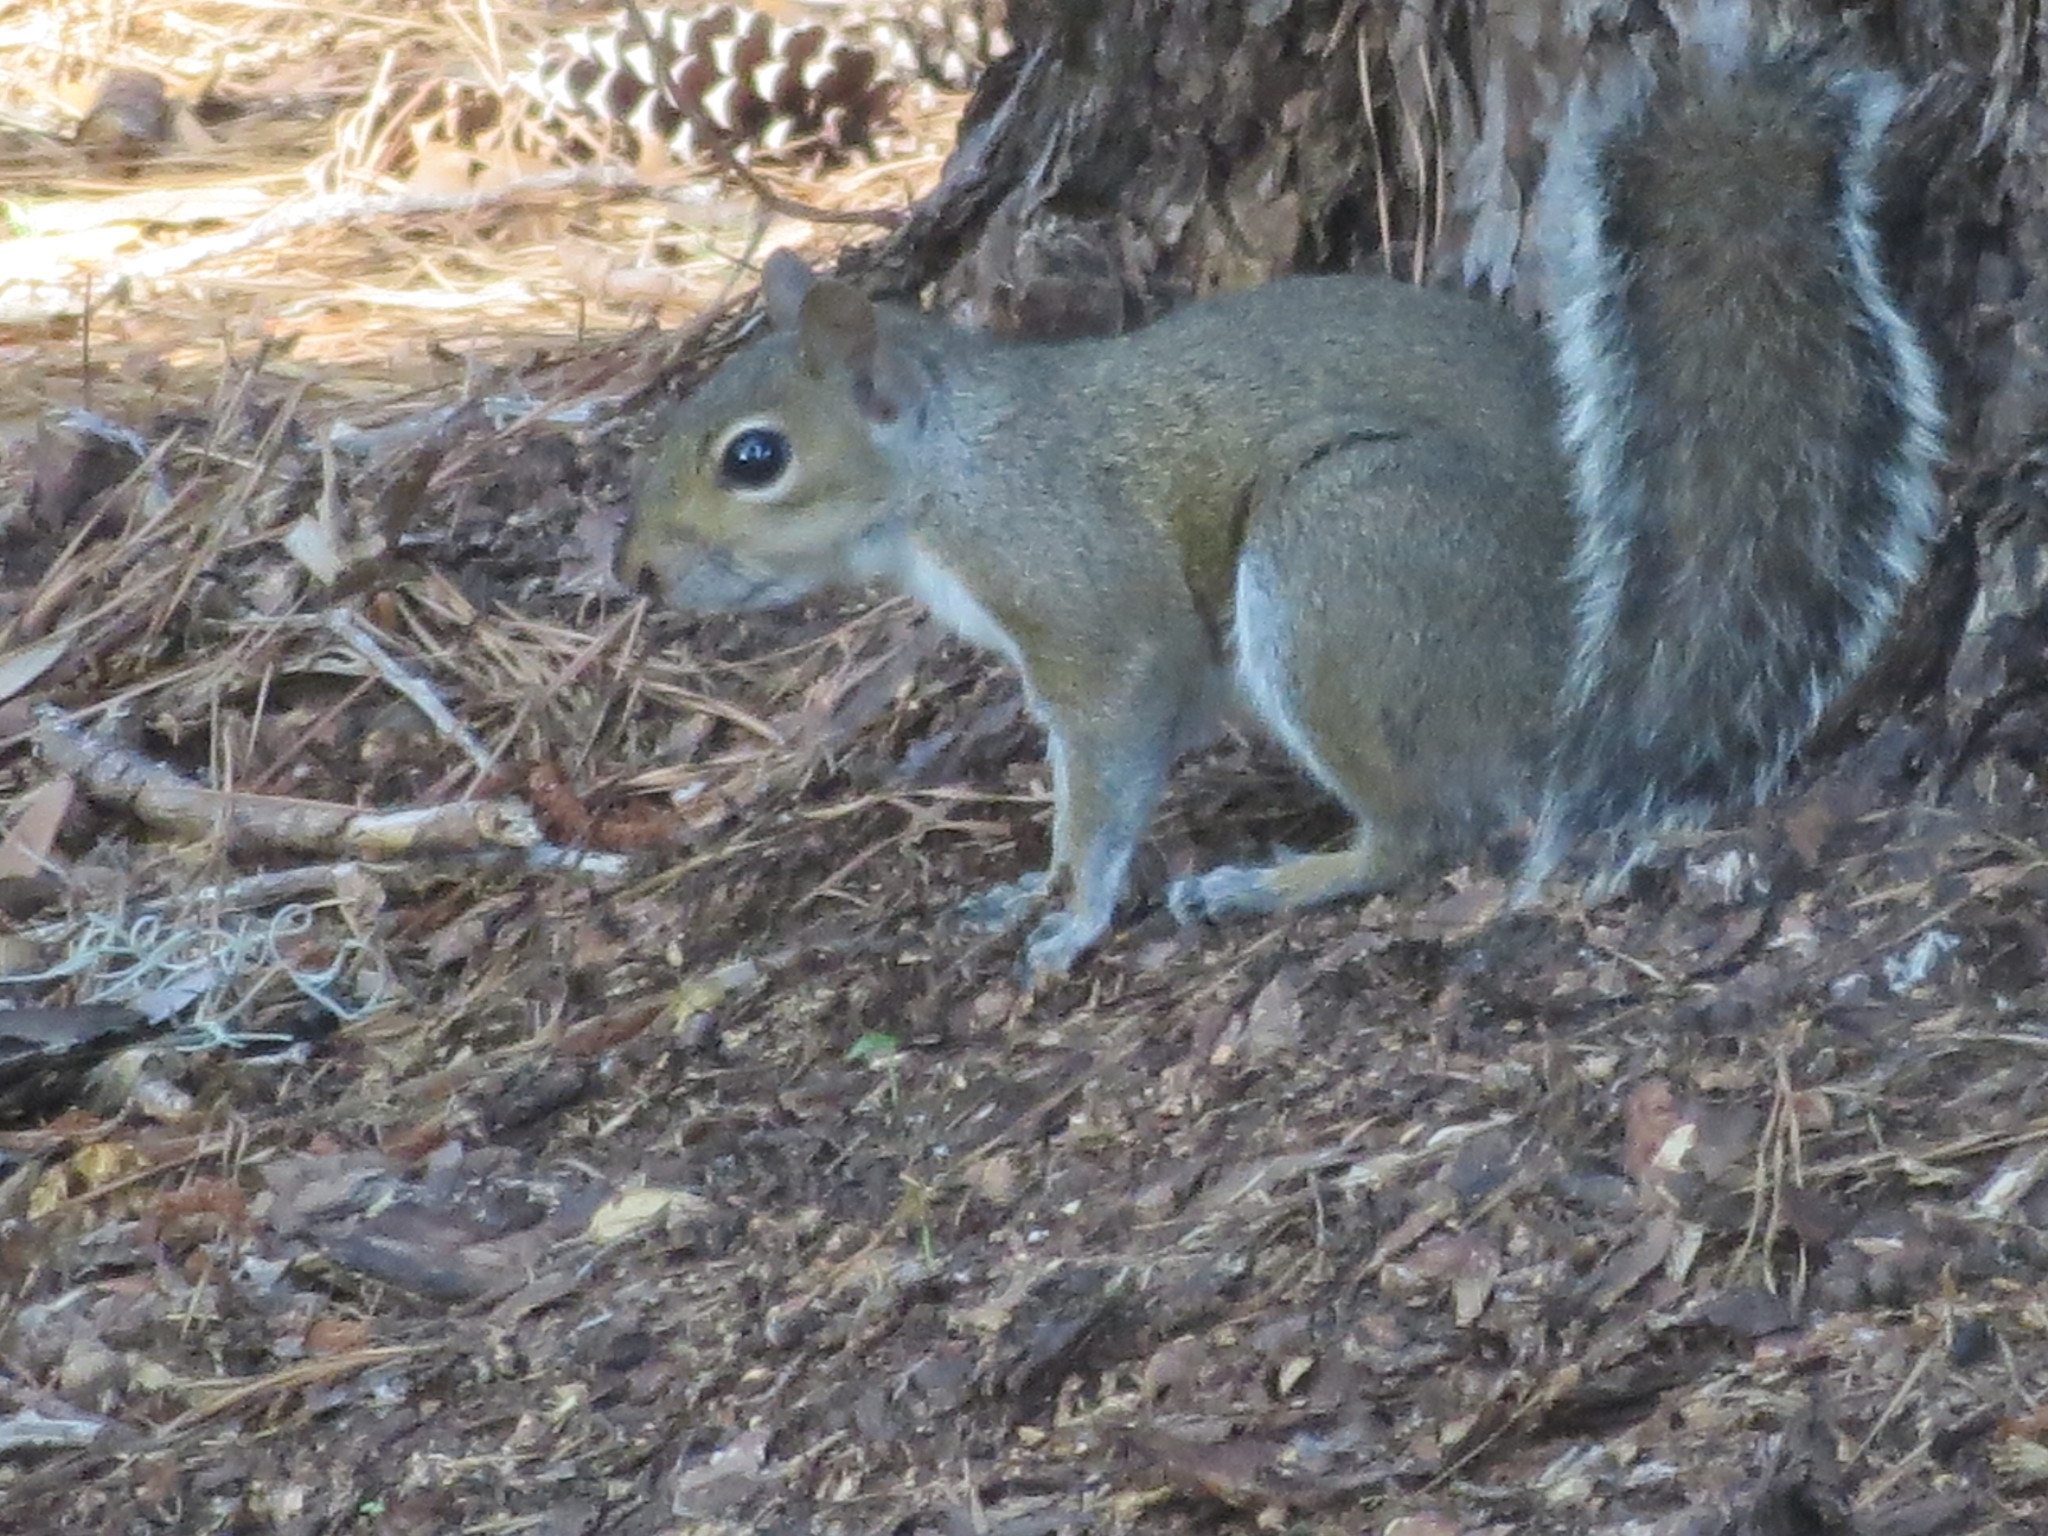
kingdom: Animalia
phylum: Chordata
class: Mammalia
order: Rodentia
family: Sciuridae
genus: Sciurus
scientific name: Sciurus carolinensis
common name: Eastern gray squirrel
